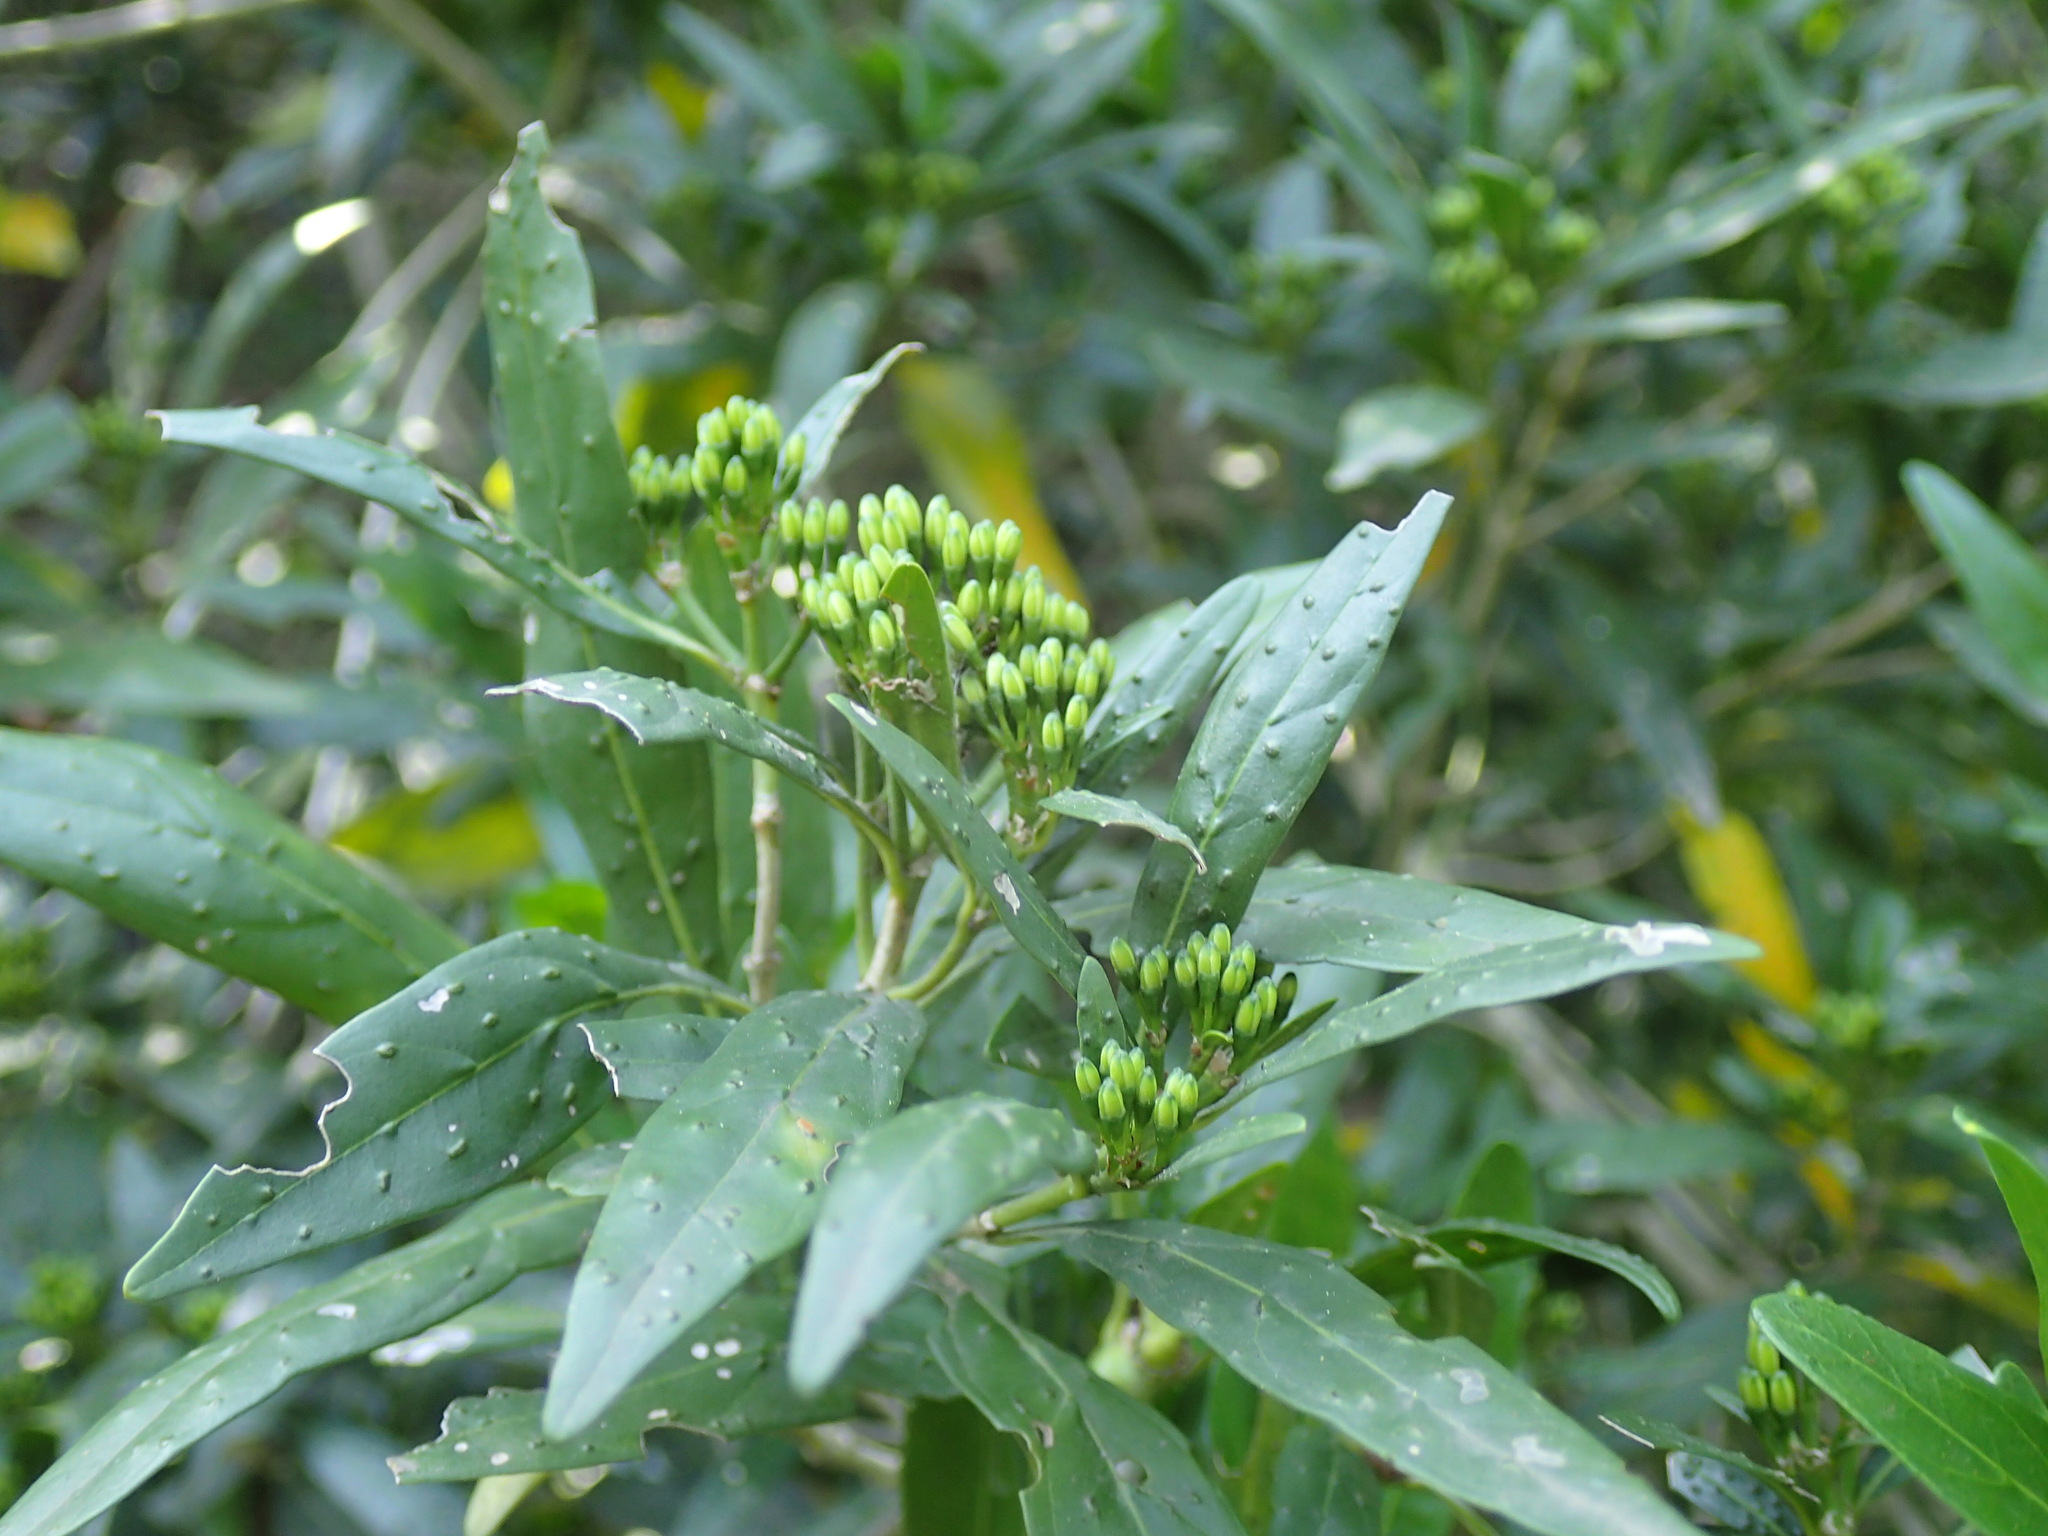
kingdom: Plantae
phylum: Tracheophyta
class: Magnoliopsida
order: Gentianales
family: Rubiaceae
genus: Pavetta
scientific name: Pavetta lanceolata
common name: Weeping brides-bush
